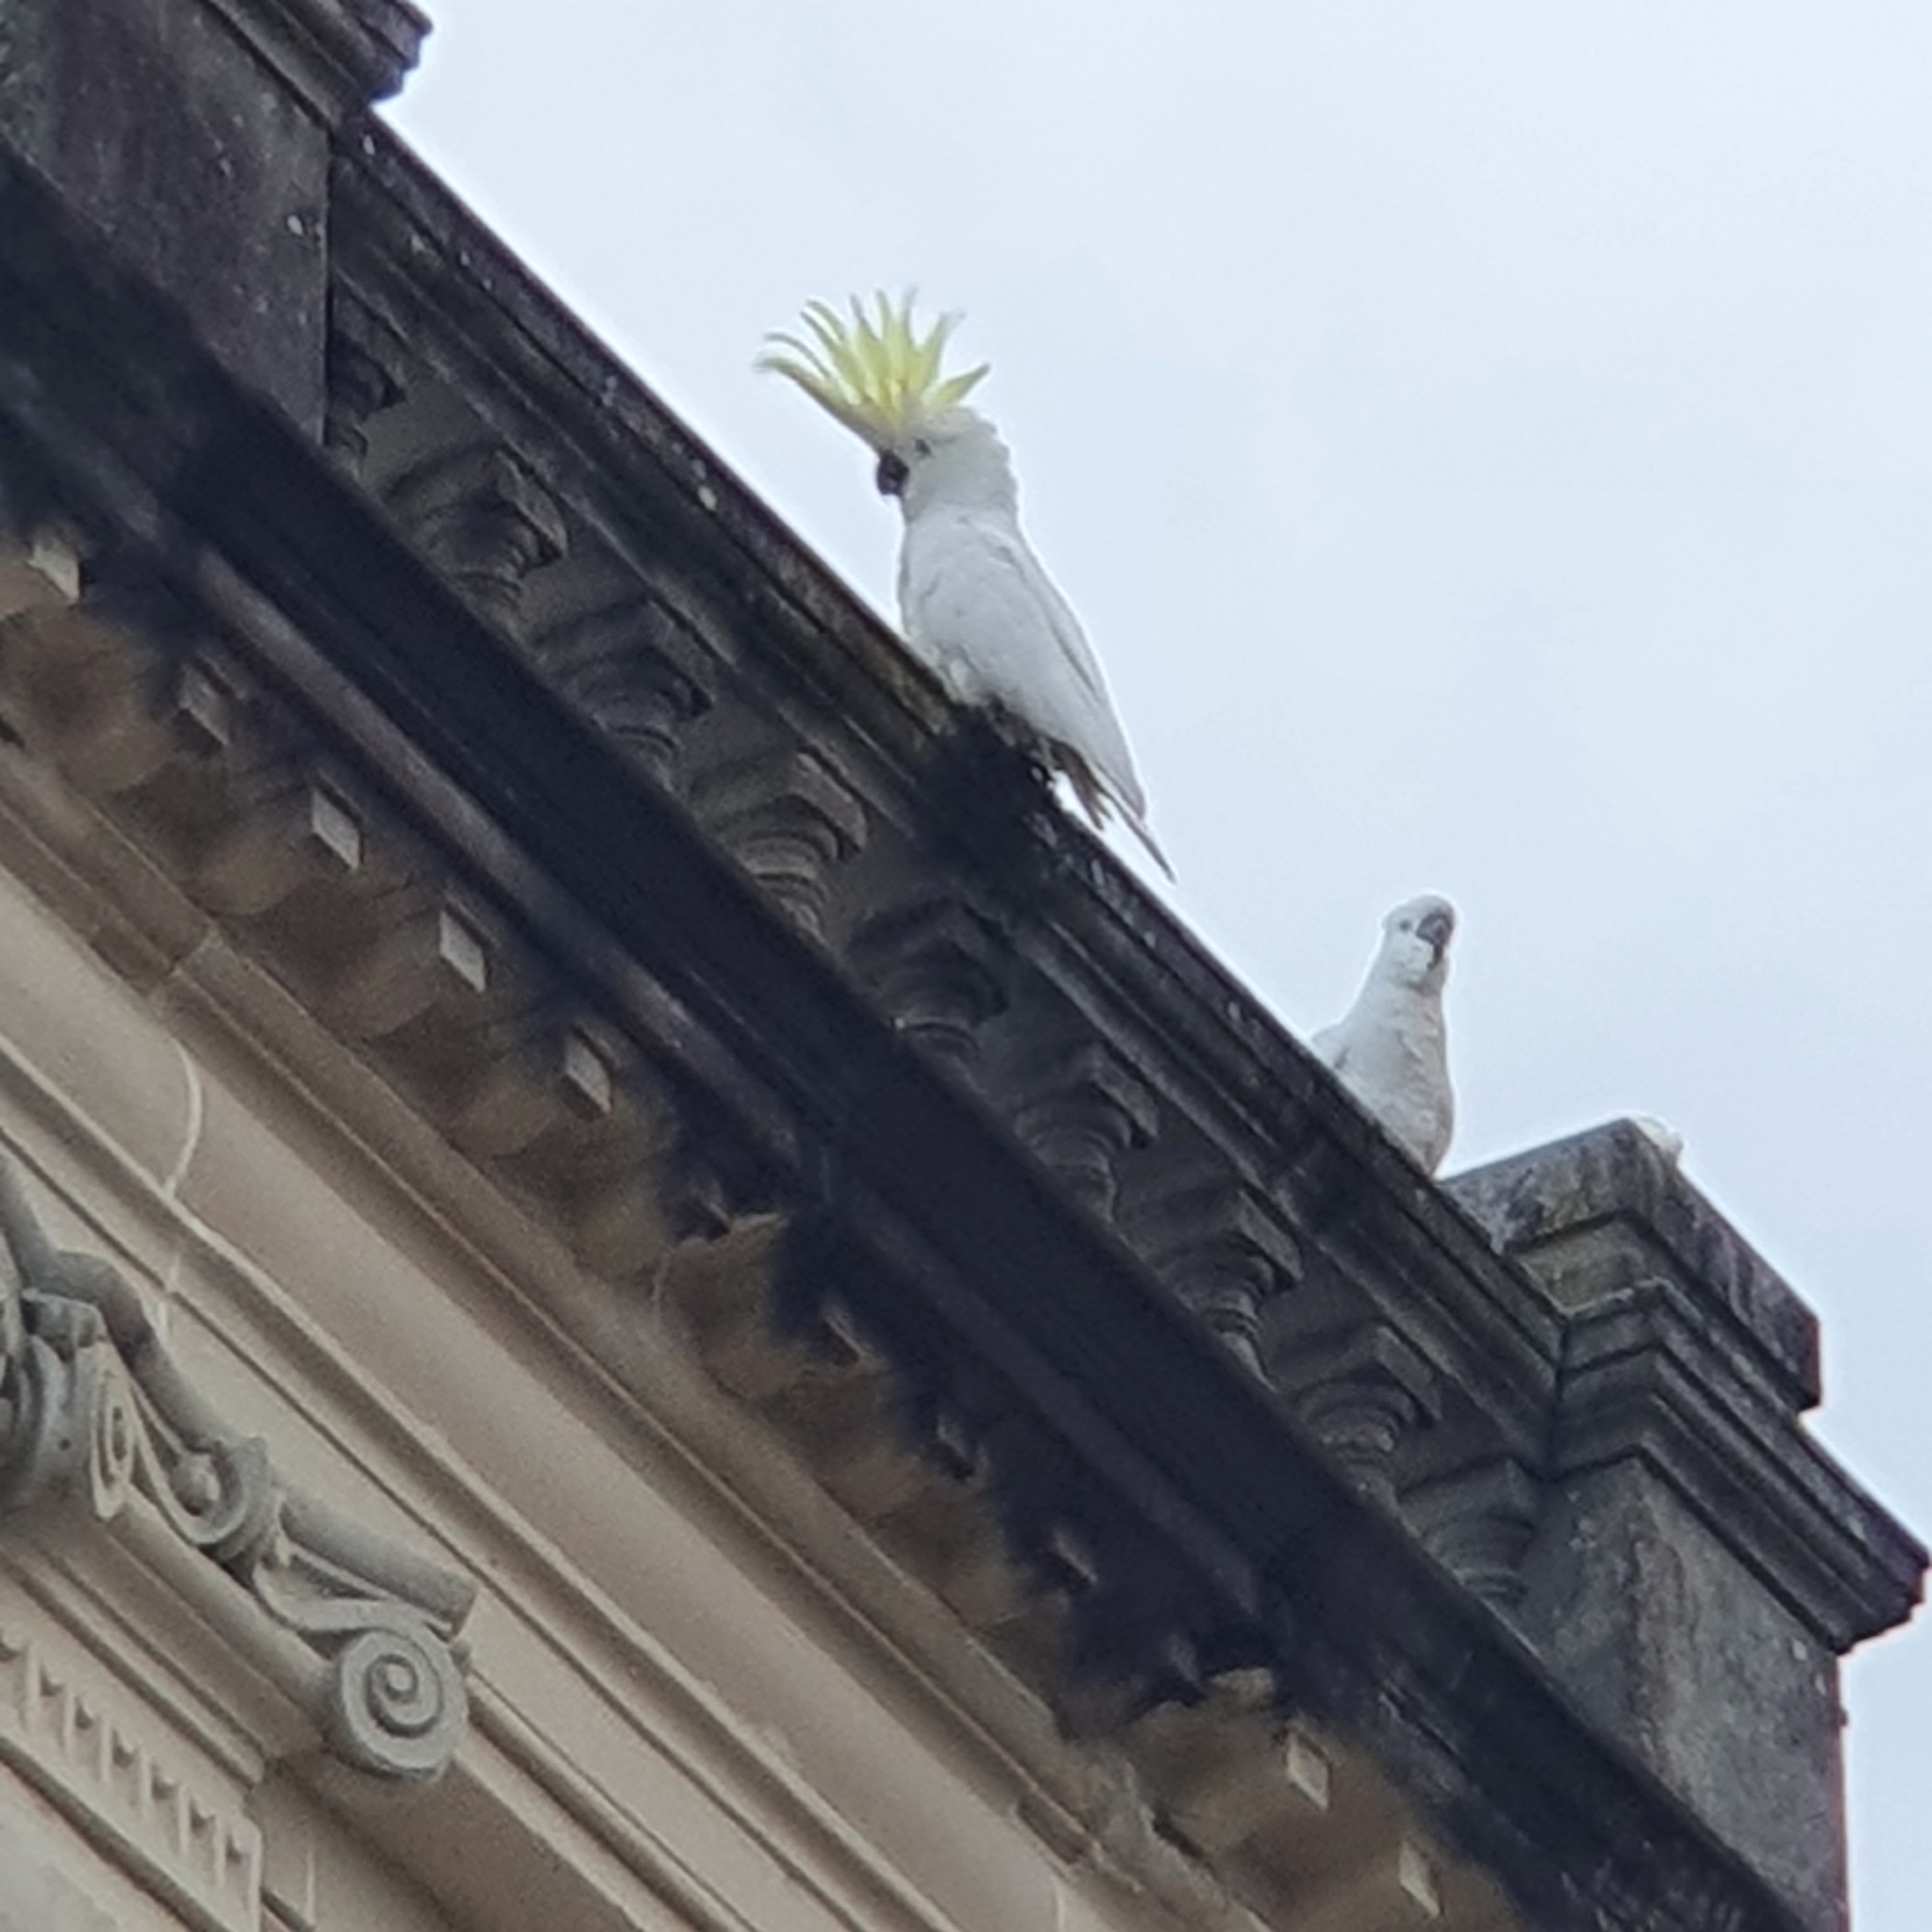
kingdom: Animalia
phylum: Chordata
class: Aves
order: Psittaciformes
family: Psittacidae
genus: Cacatua
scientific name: Cacatua galerita
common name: Sulphur-crested cockatoo
